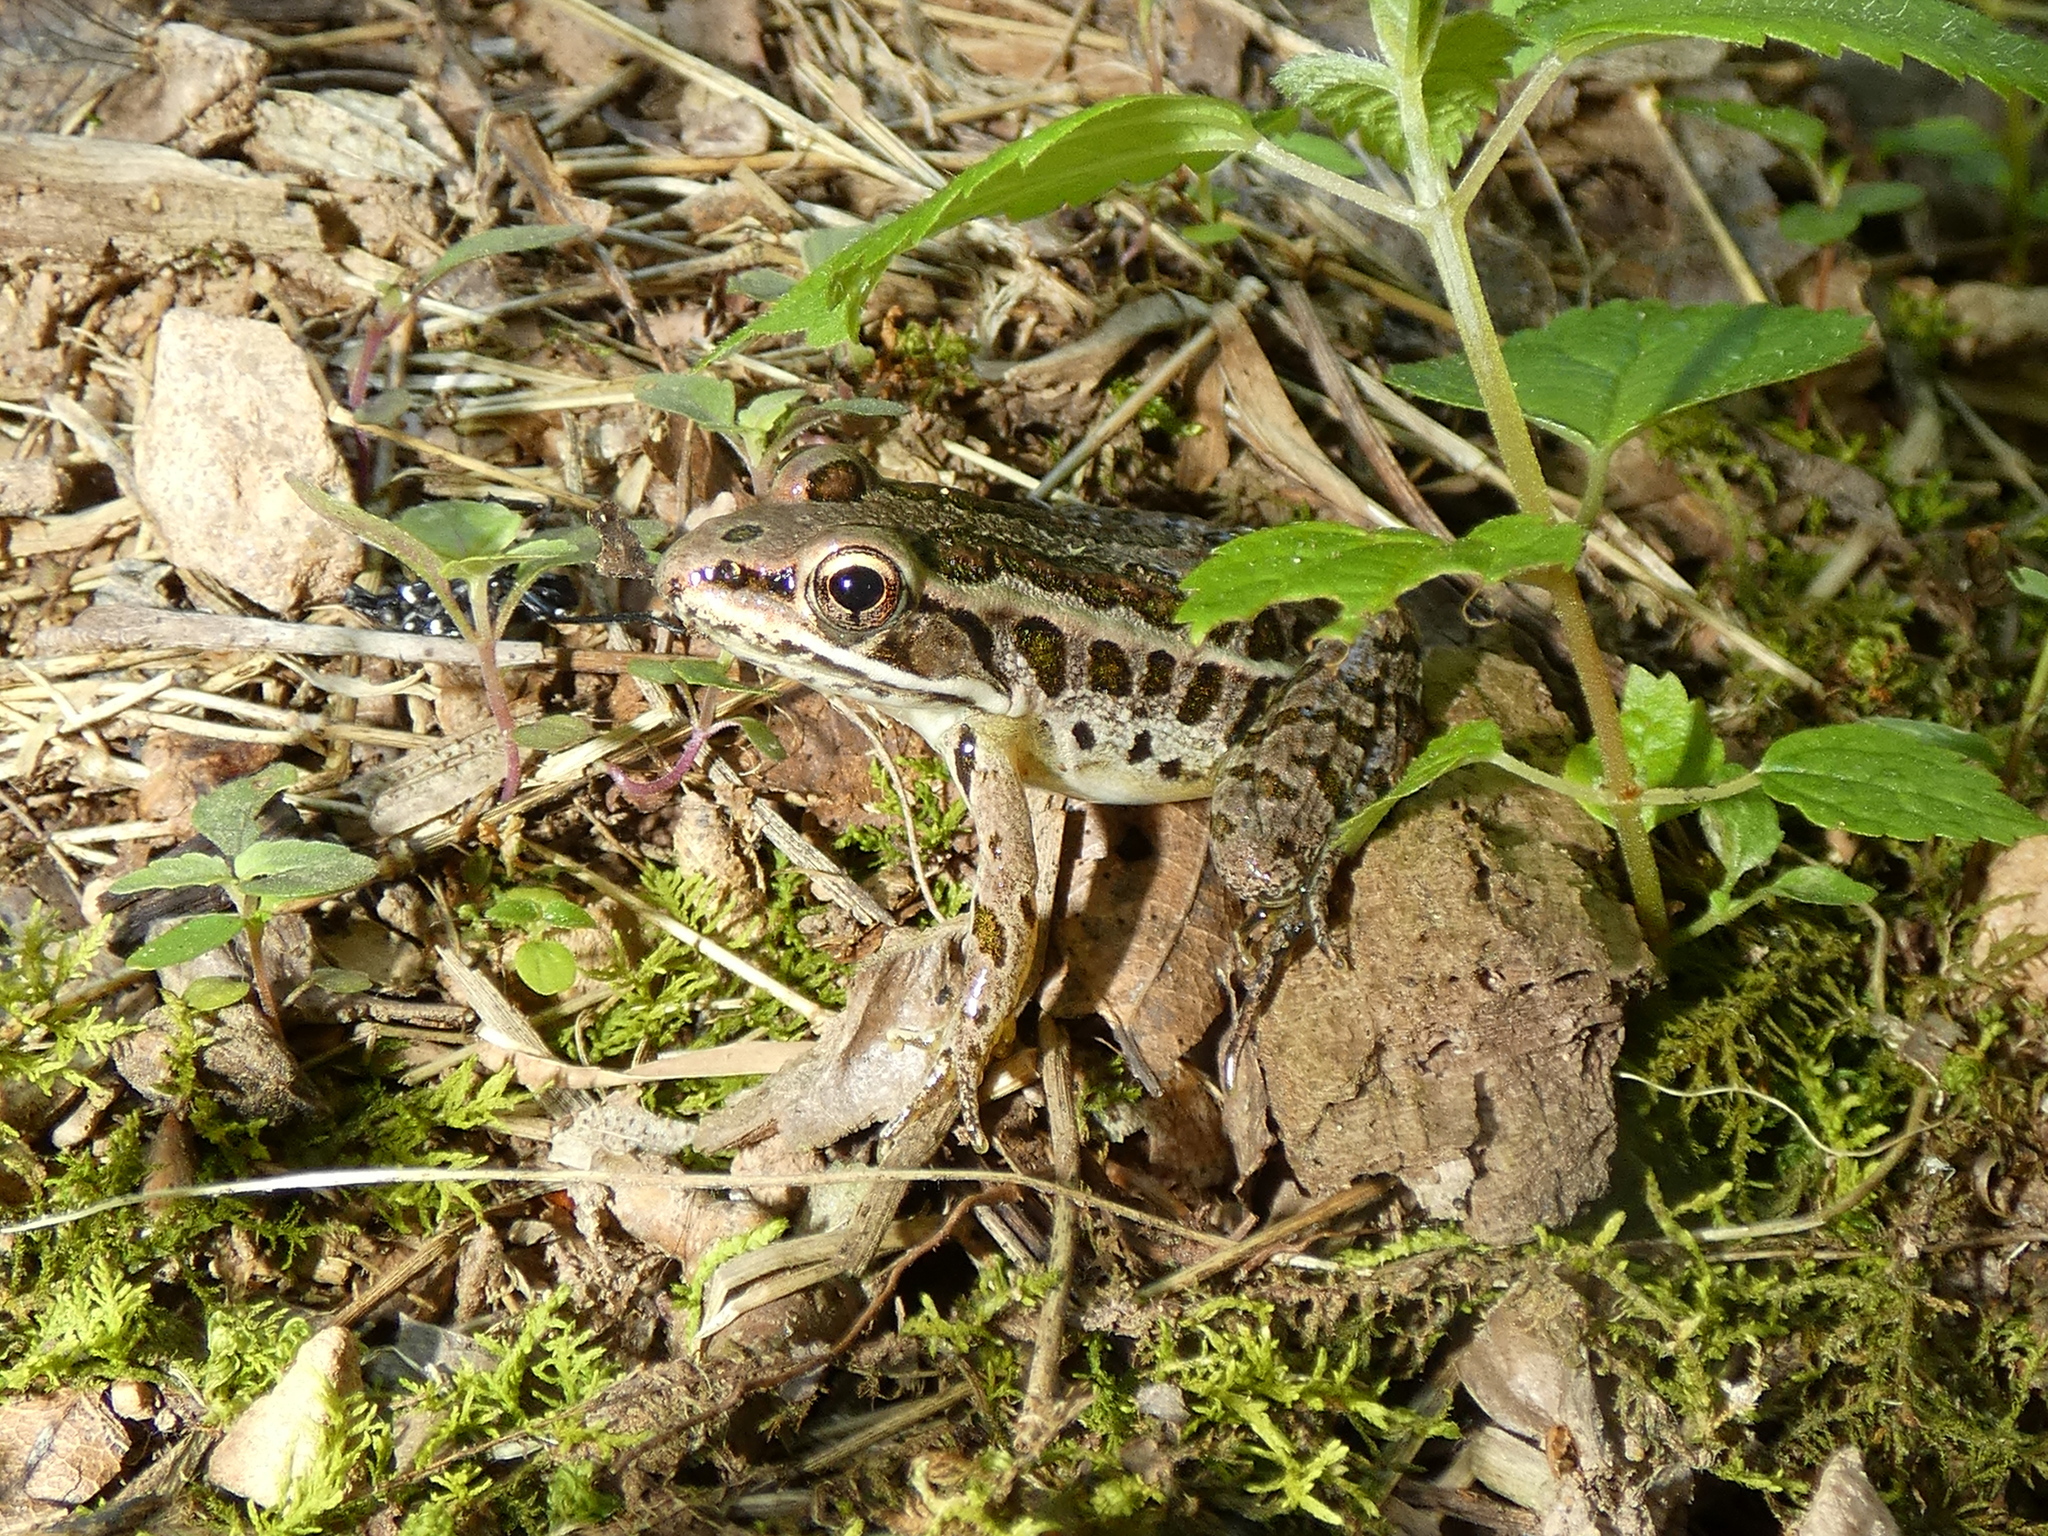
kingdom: Animalia
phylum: Chordata
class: Amphibia
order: Anura
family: Ranidae
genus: Lithobates
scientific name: Lithobates palustris
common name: Pickerel frog
